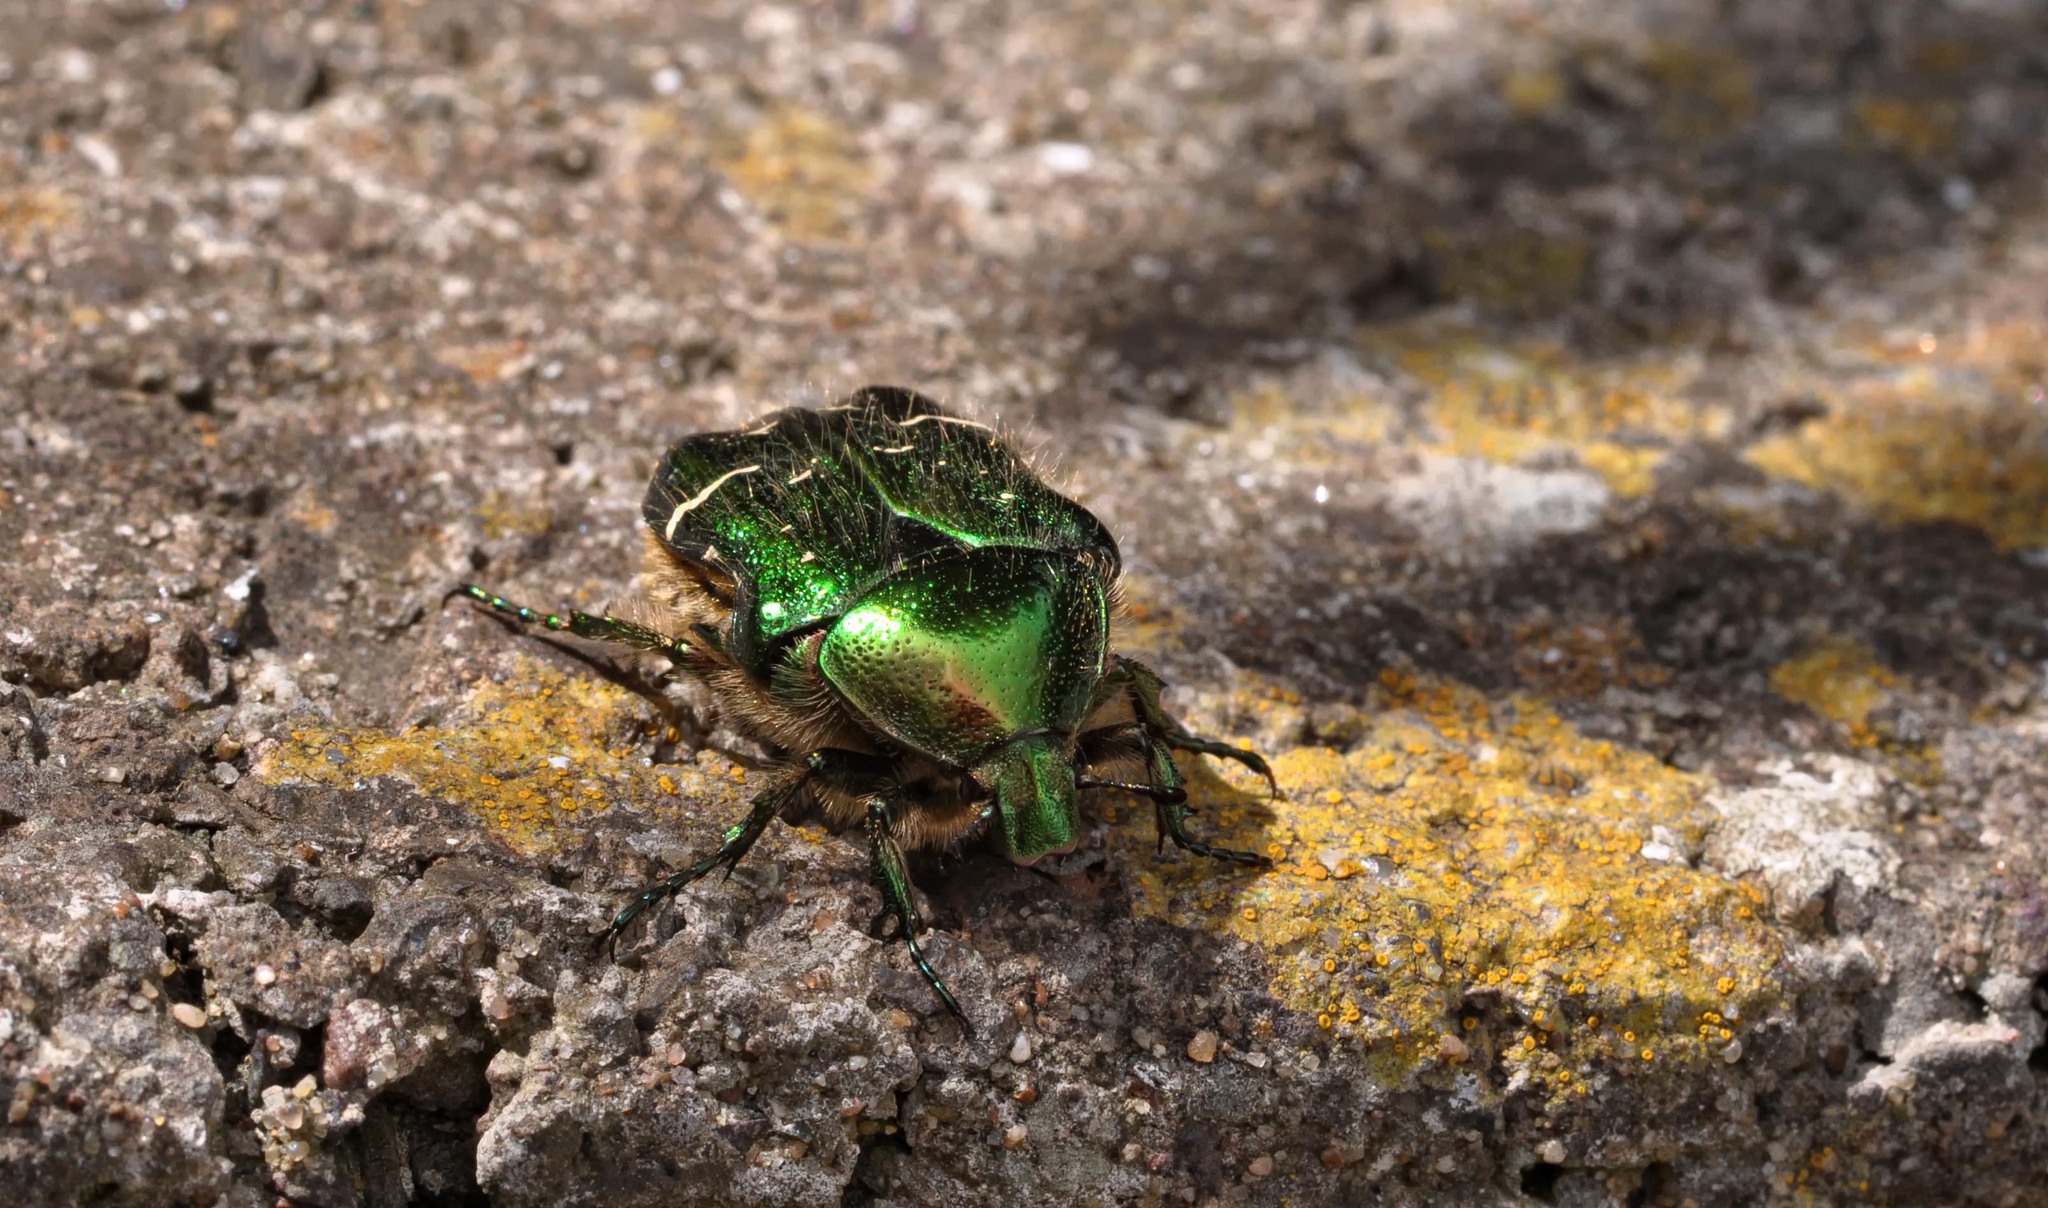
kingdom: Animalia
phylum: Arthropoda
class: Insecta
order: Coleoptera
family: Scarabaeidae
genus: Cetonia
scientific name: Cetonia aurata
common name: Rose chafer
